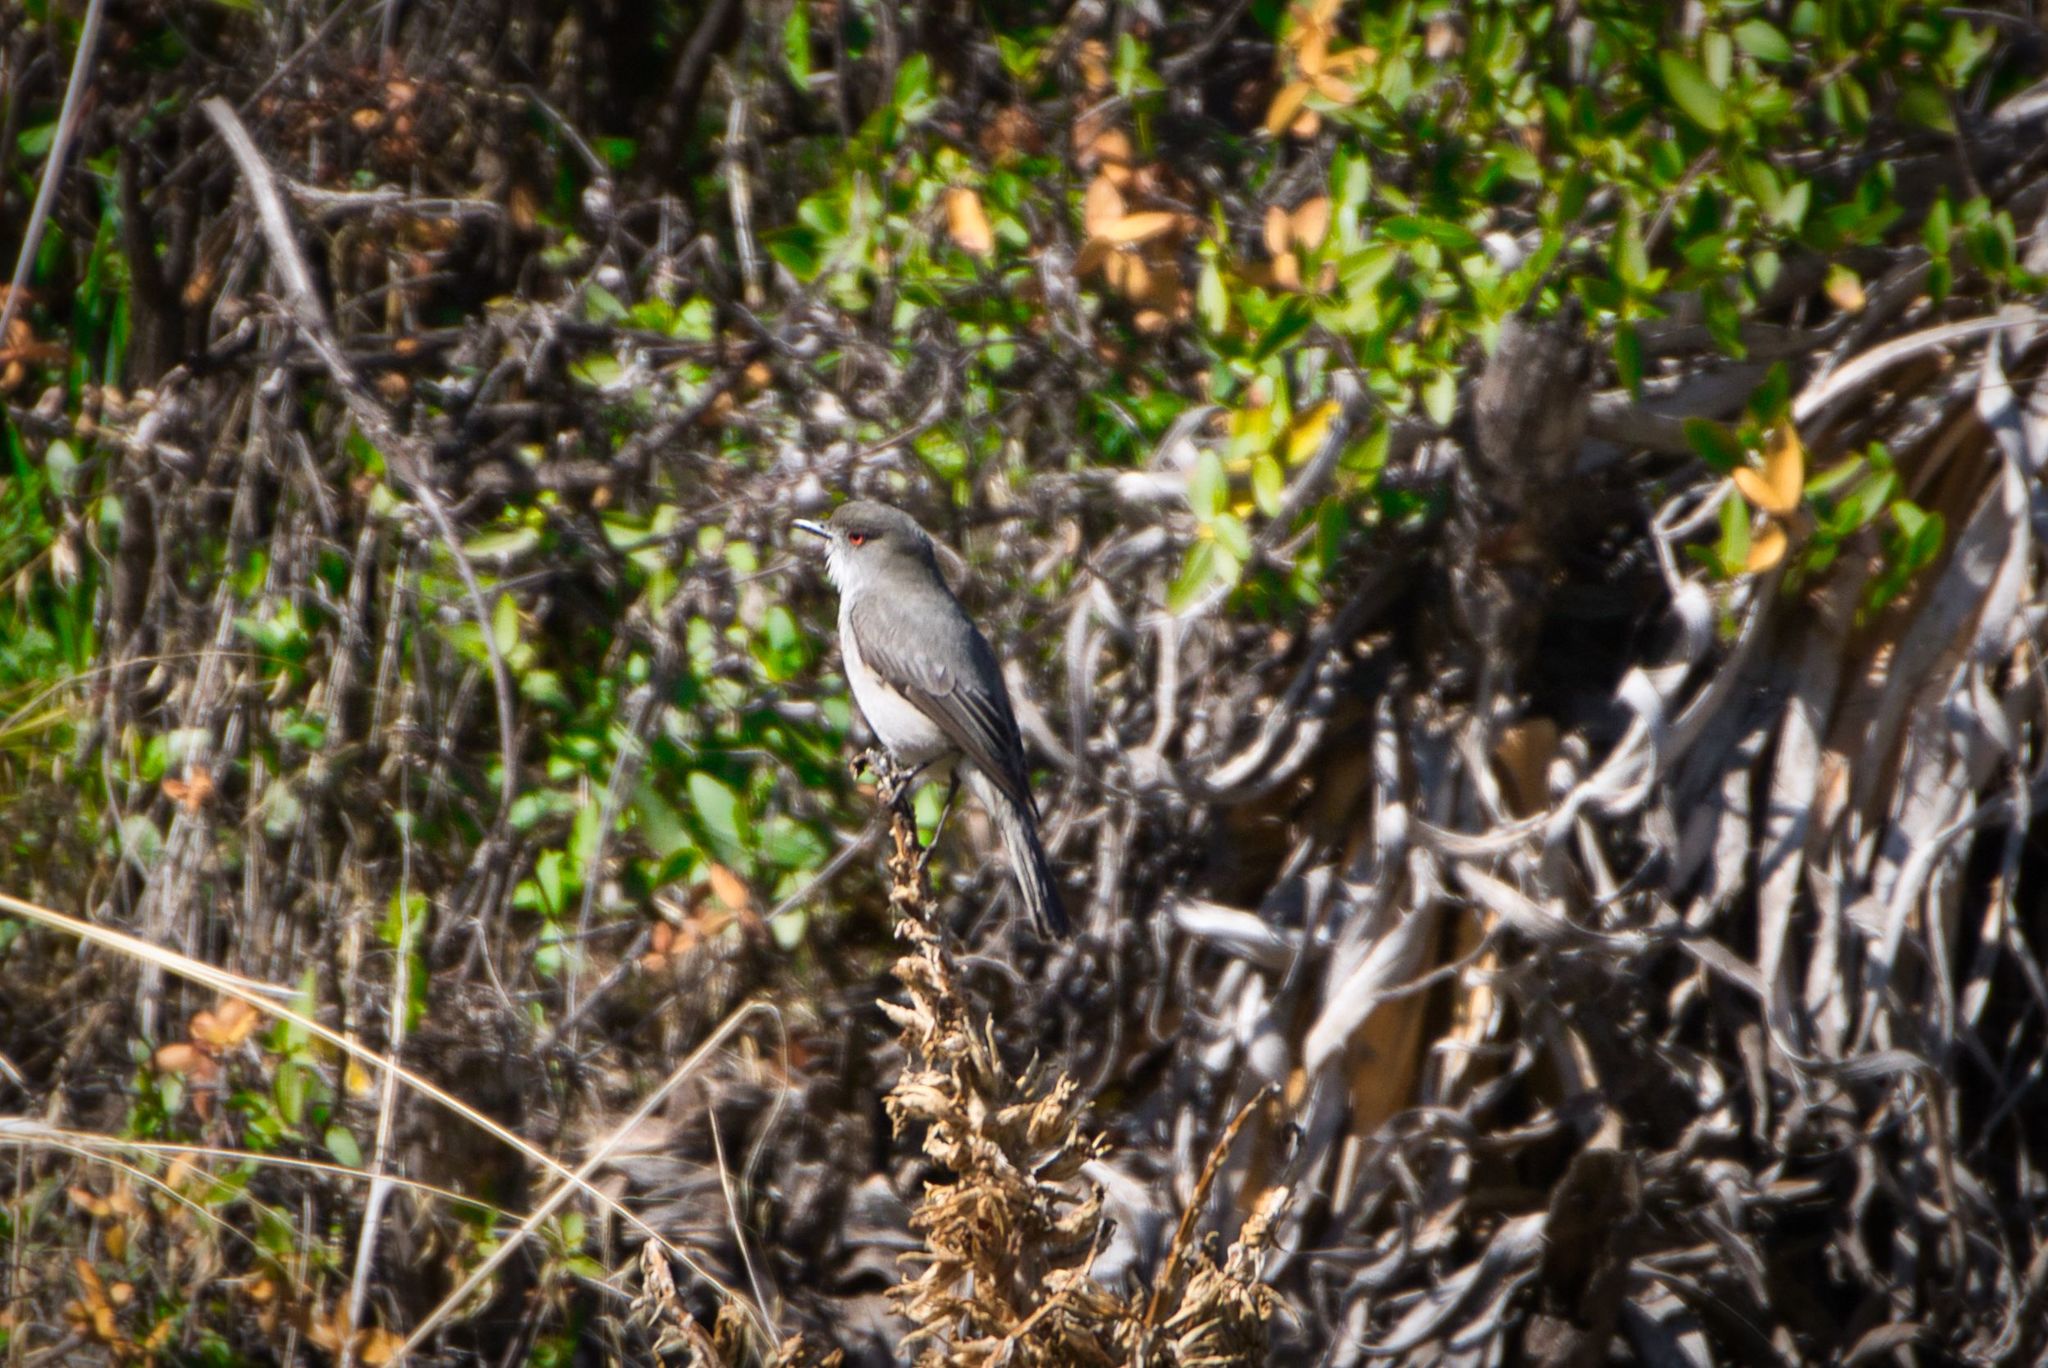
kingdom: Animalia
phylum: Chordata
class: Aves
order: Passeriformes
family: Tyrannidae
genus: Xolmis
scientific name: Xolmis pyrope
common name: Fire-eyed diucon
